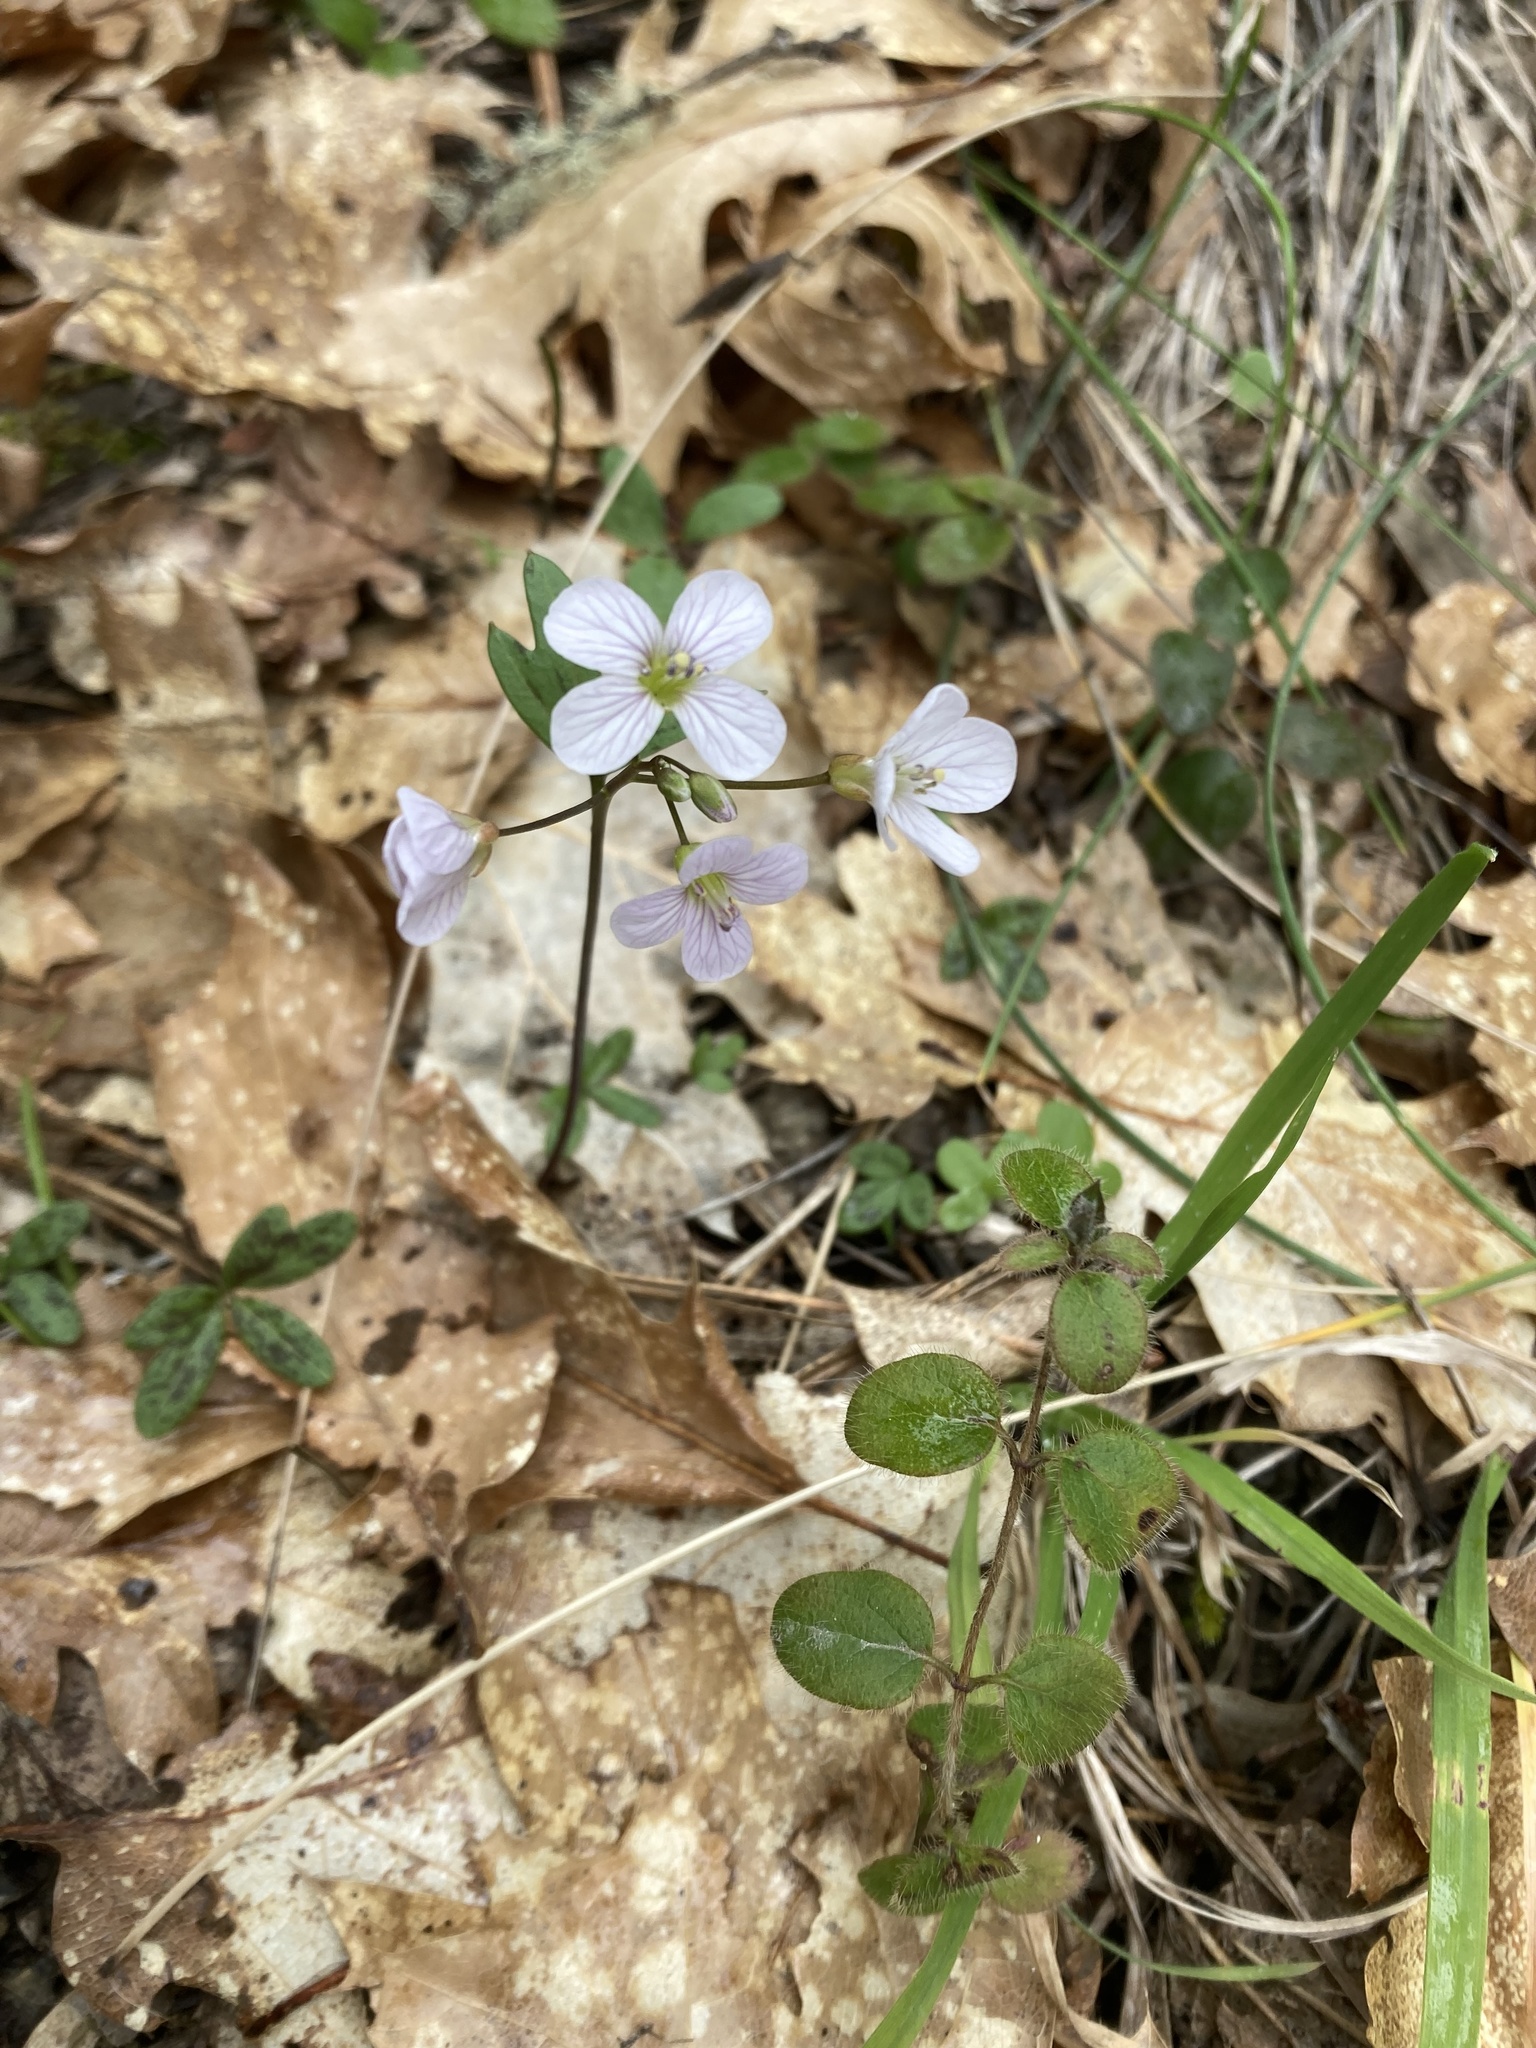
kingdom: Plantae
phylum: Tracheophyta
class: Magnoliopsida
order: Brassicales
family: Brassicaceae
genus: Cardamine
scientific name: Cardamine nuttallii
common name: Nuttall's toothwort
